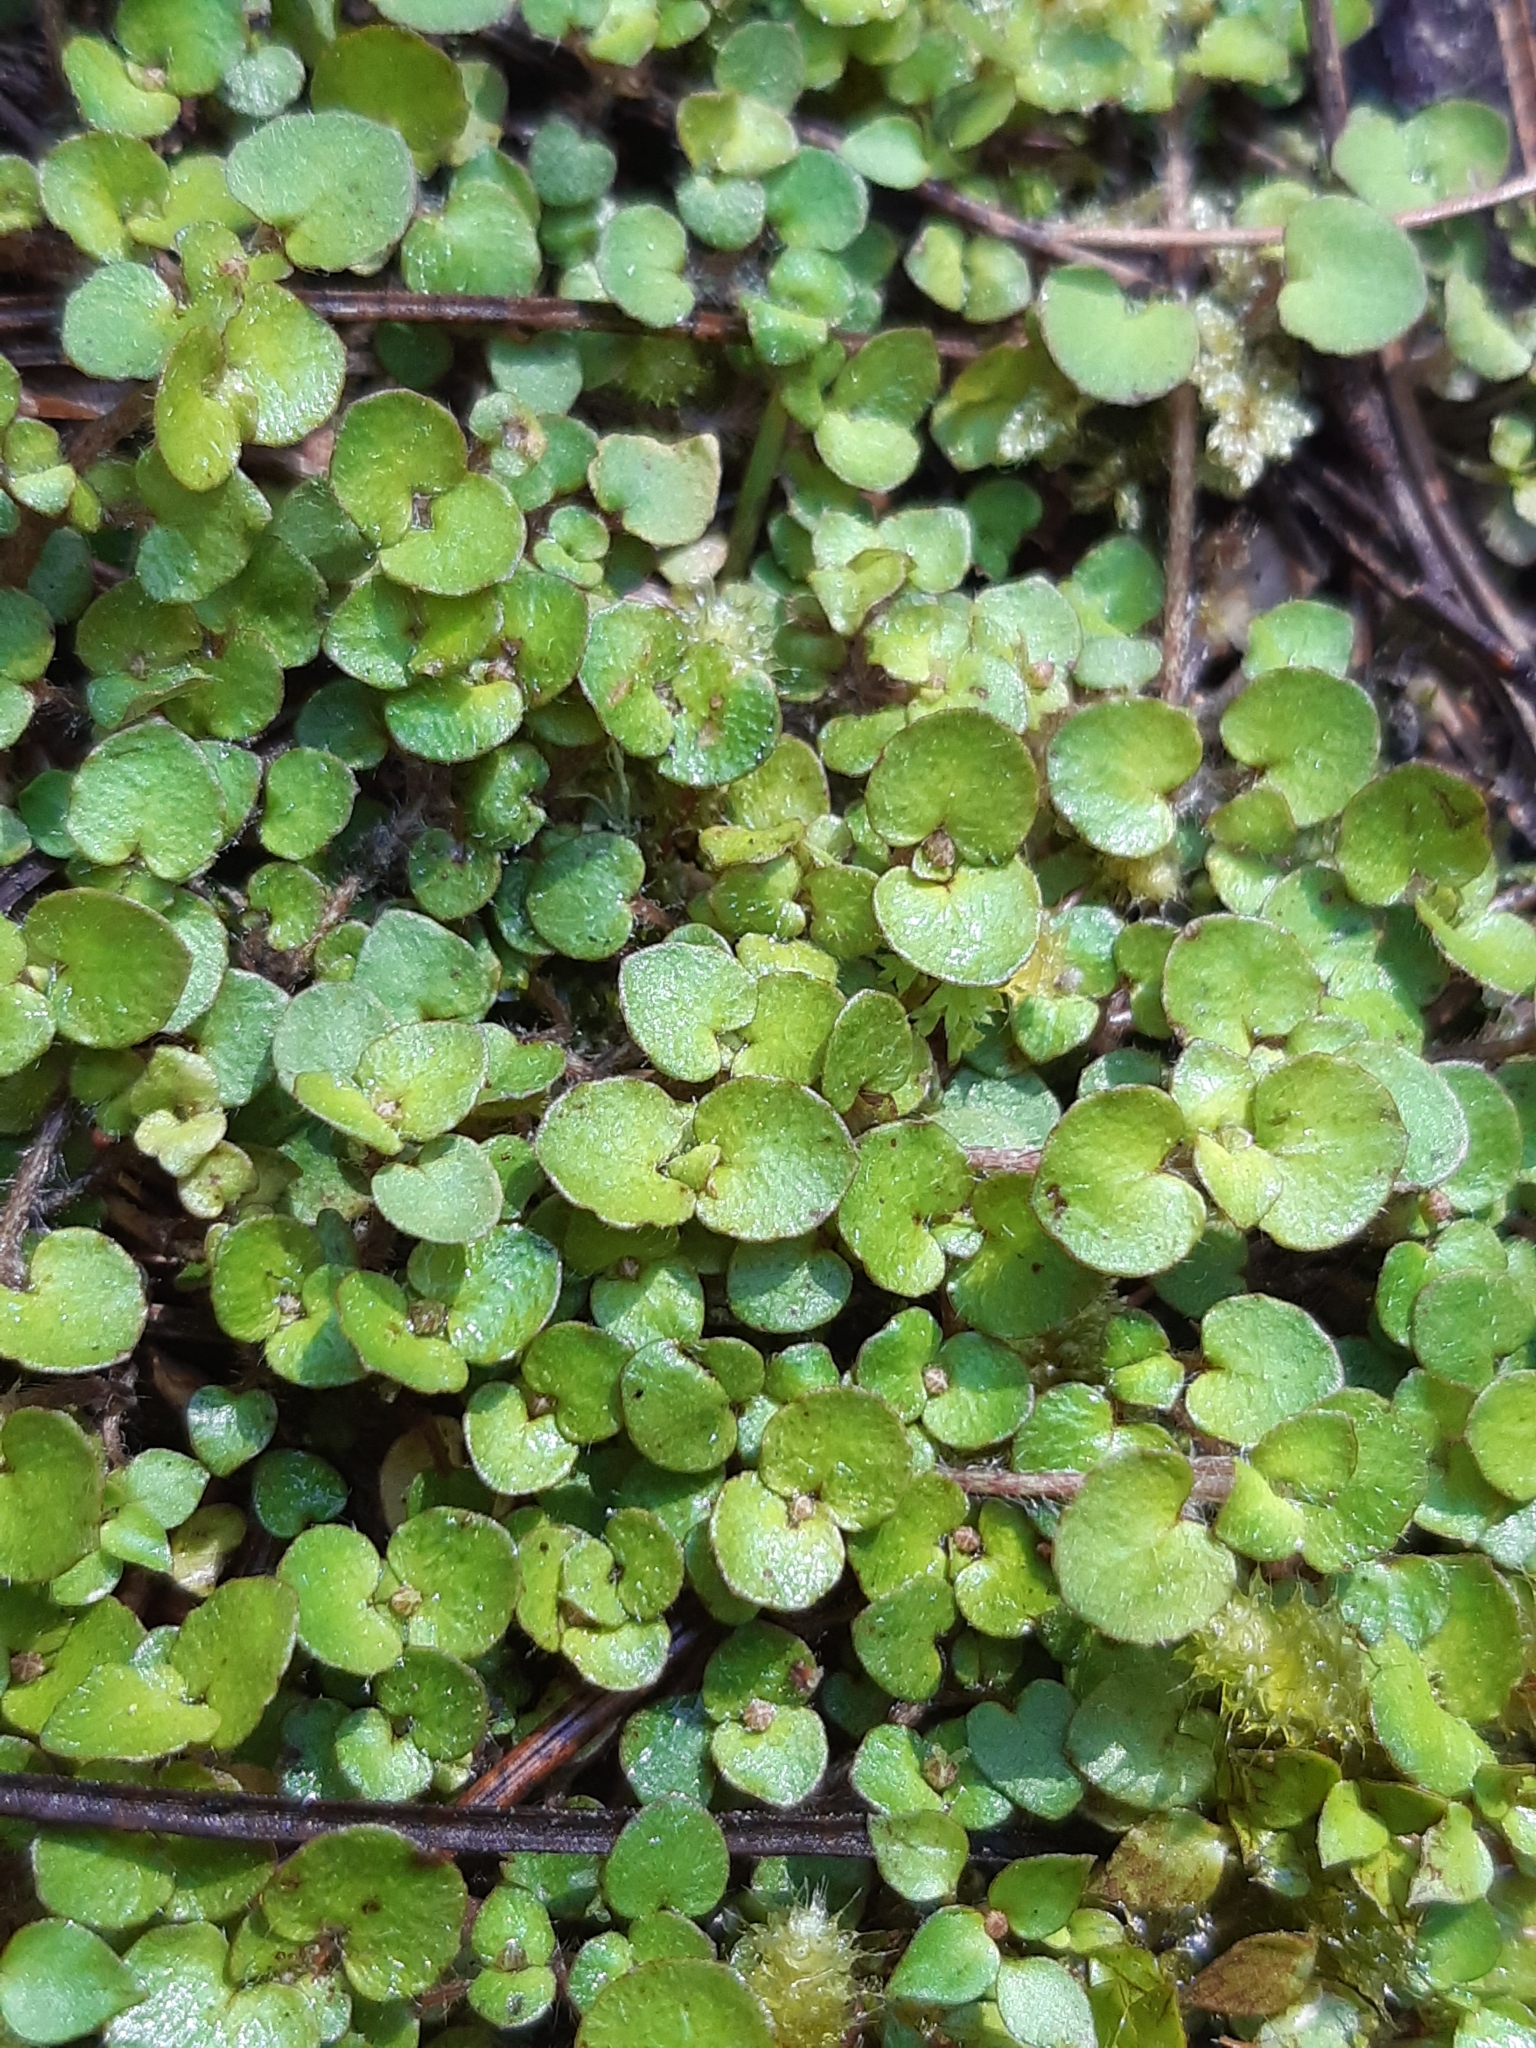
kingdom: Plantae
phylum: Tracheophyta
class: Magnoliopsida
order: Gentianales
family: Rubiaceae
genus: Nertera
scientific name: Nertera villosa
